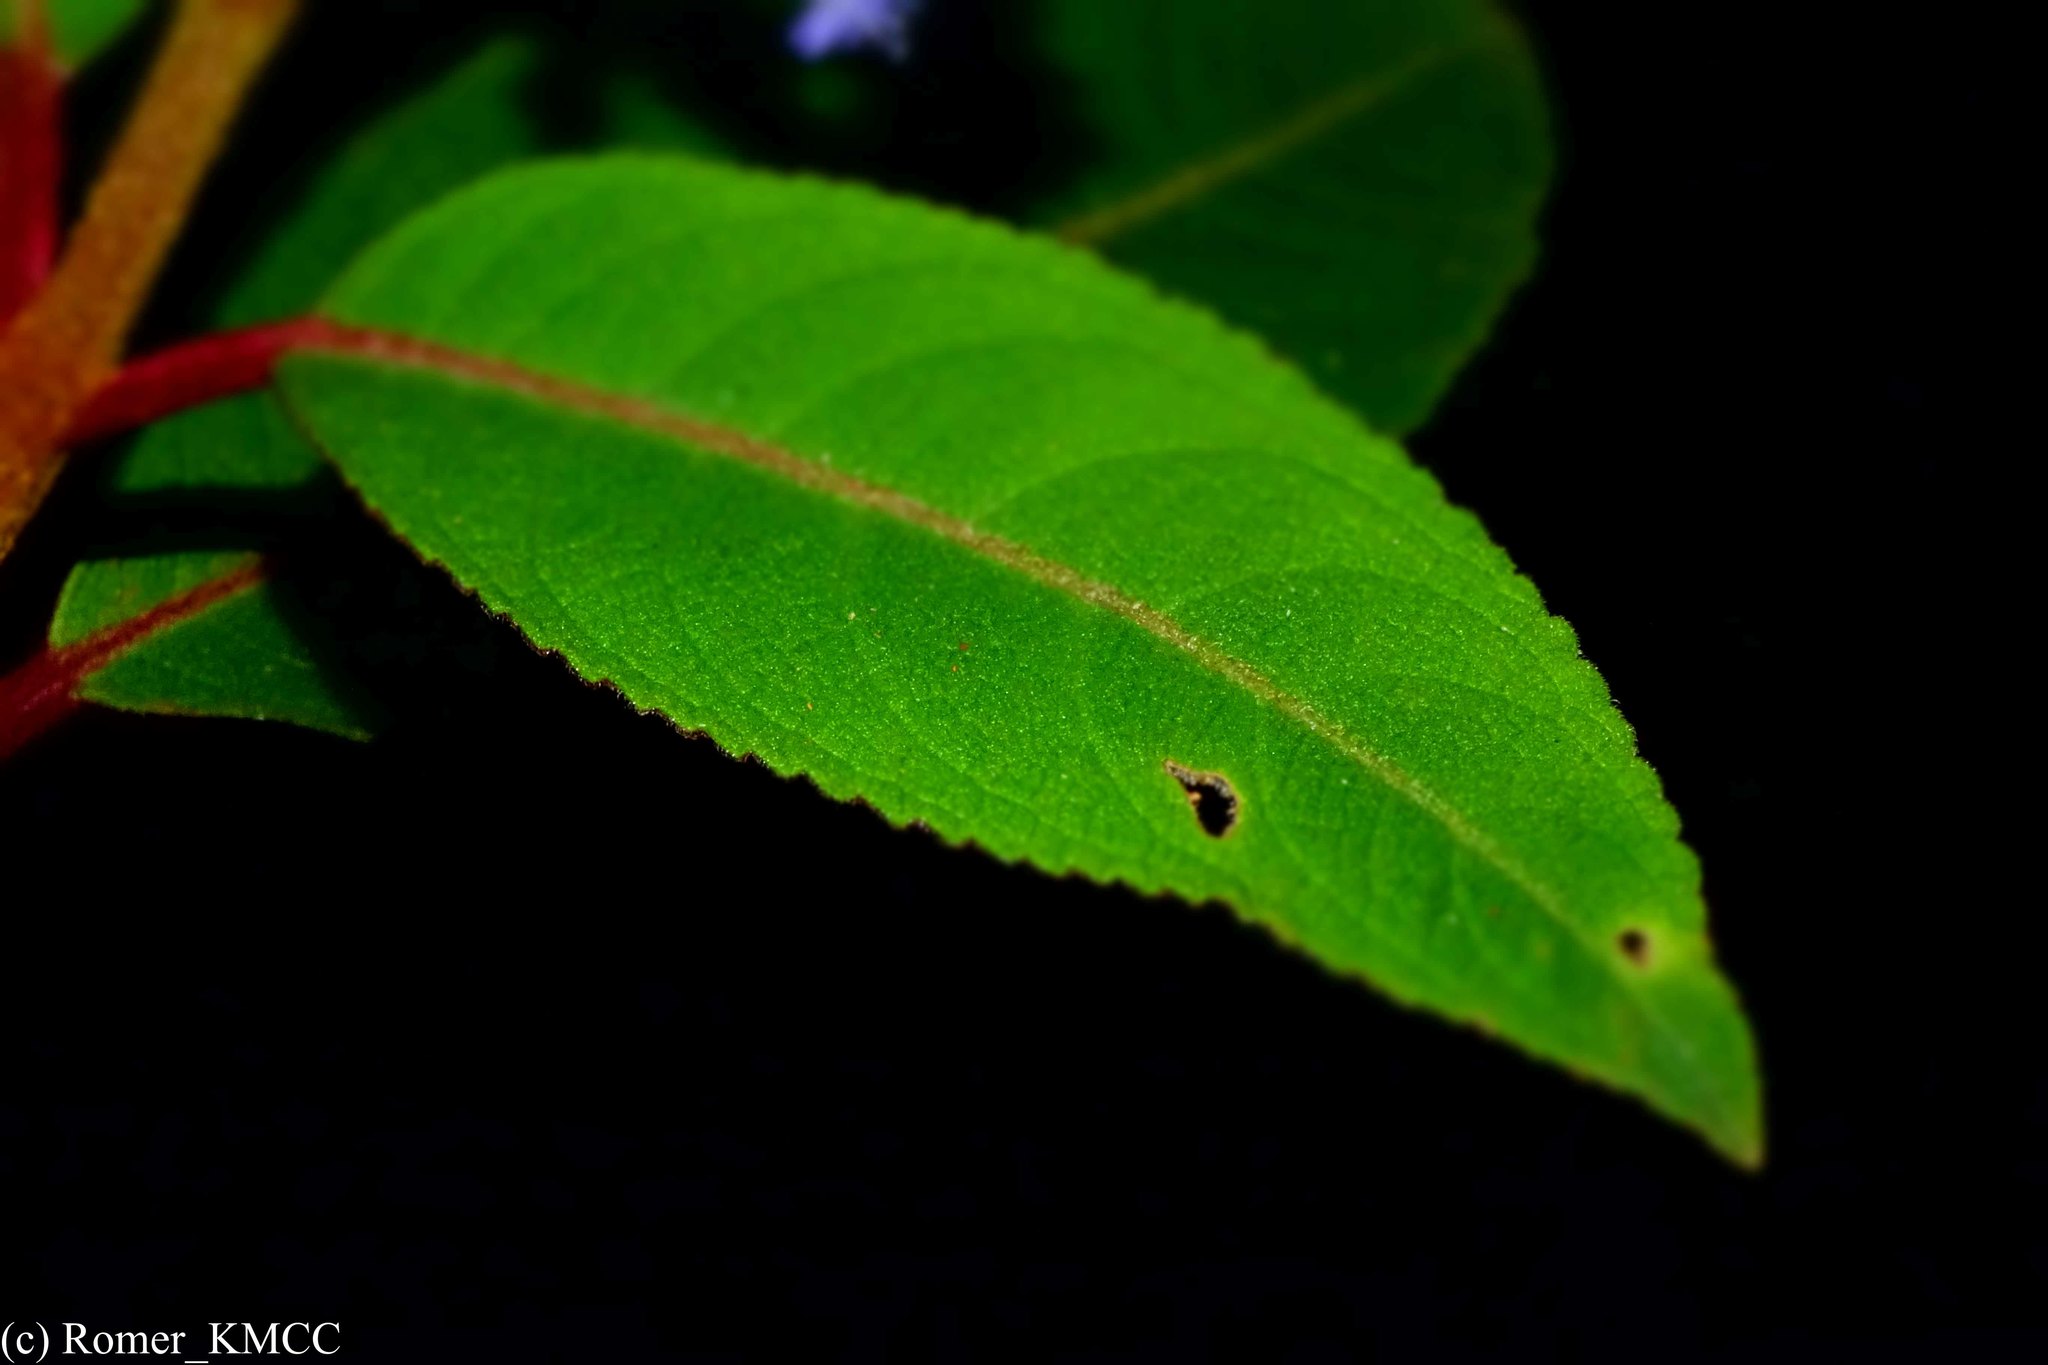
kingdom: Plantae
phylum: Tracheophyta
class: Magnoliopsida
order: Lamiales
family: Lamiaceae
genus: Plectranthus
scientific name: Plectranthus vestitus
